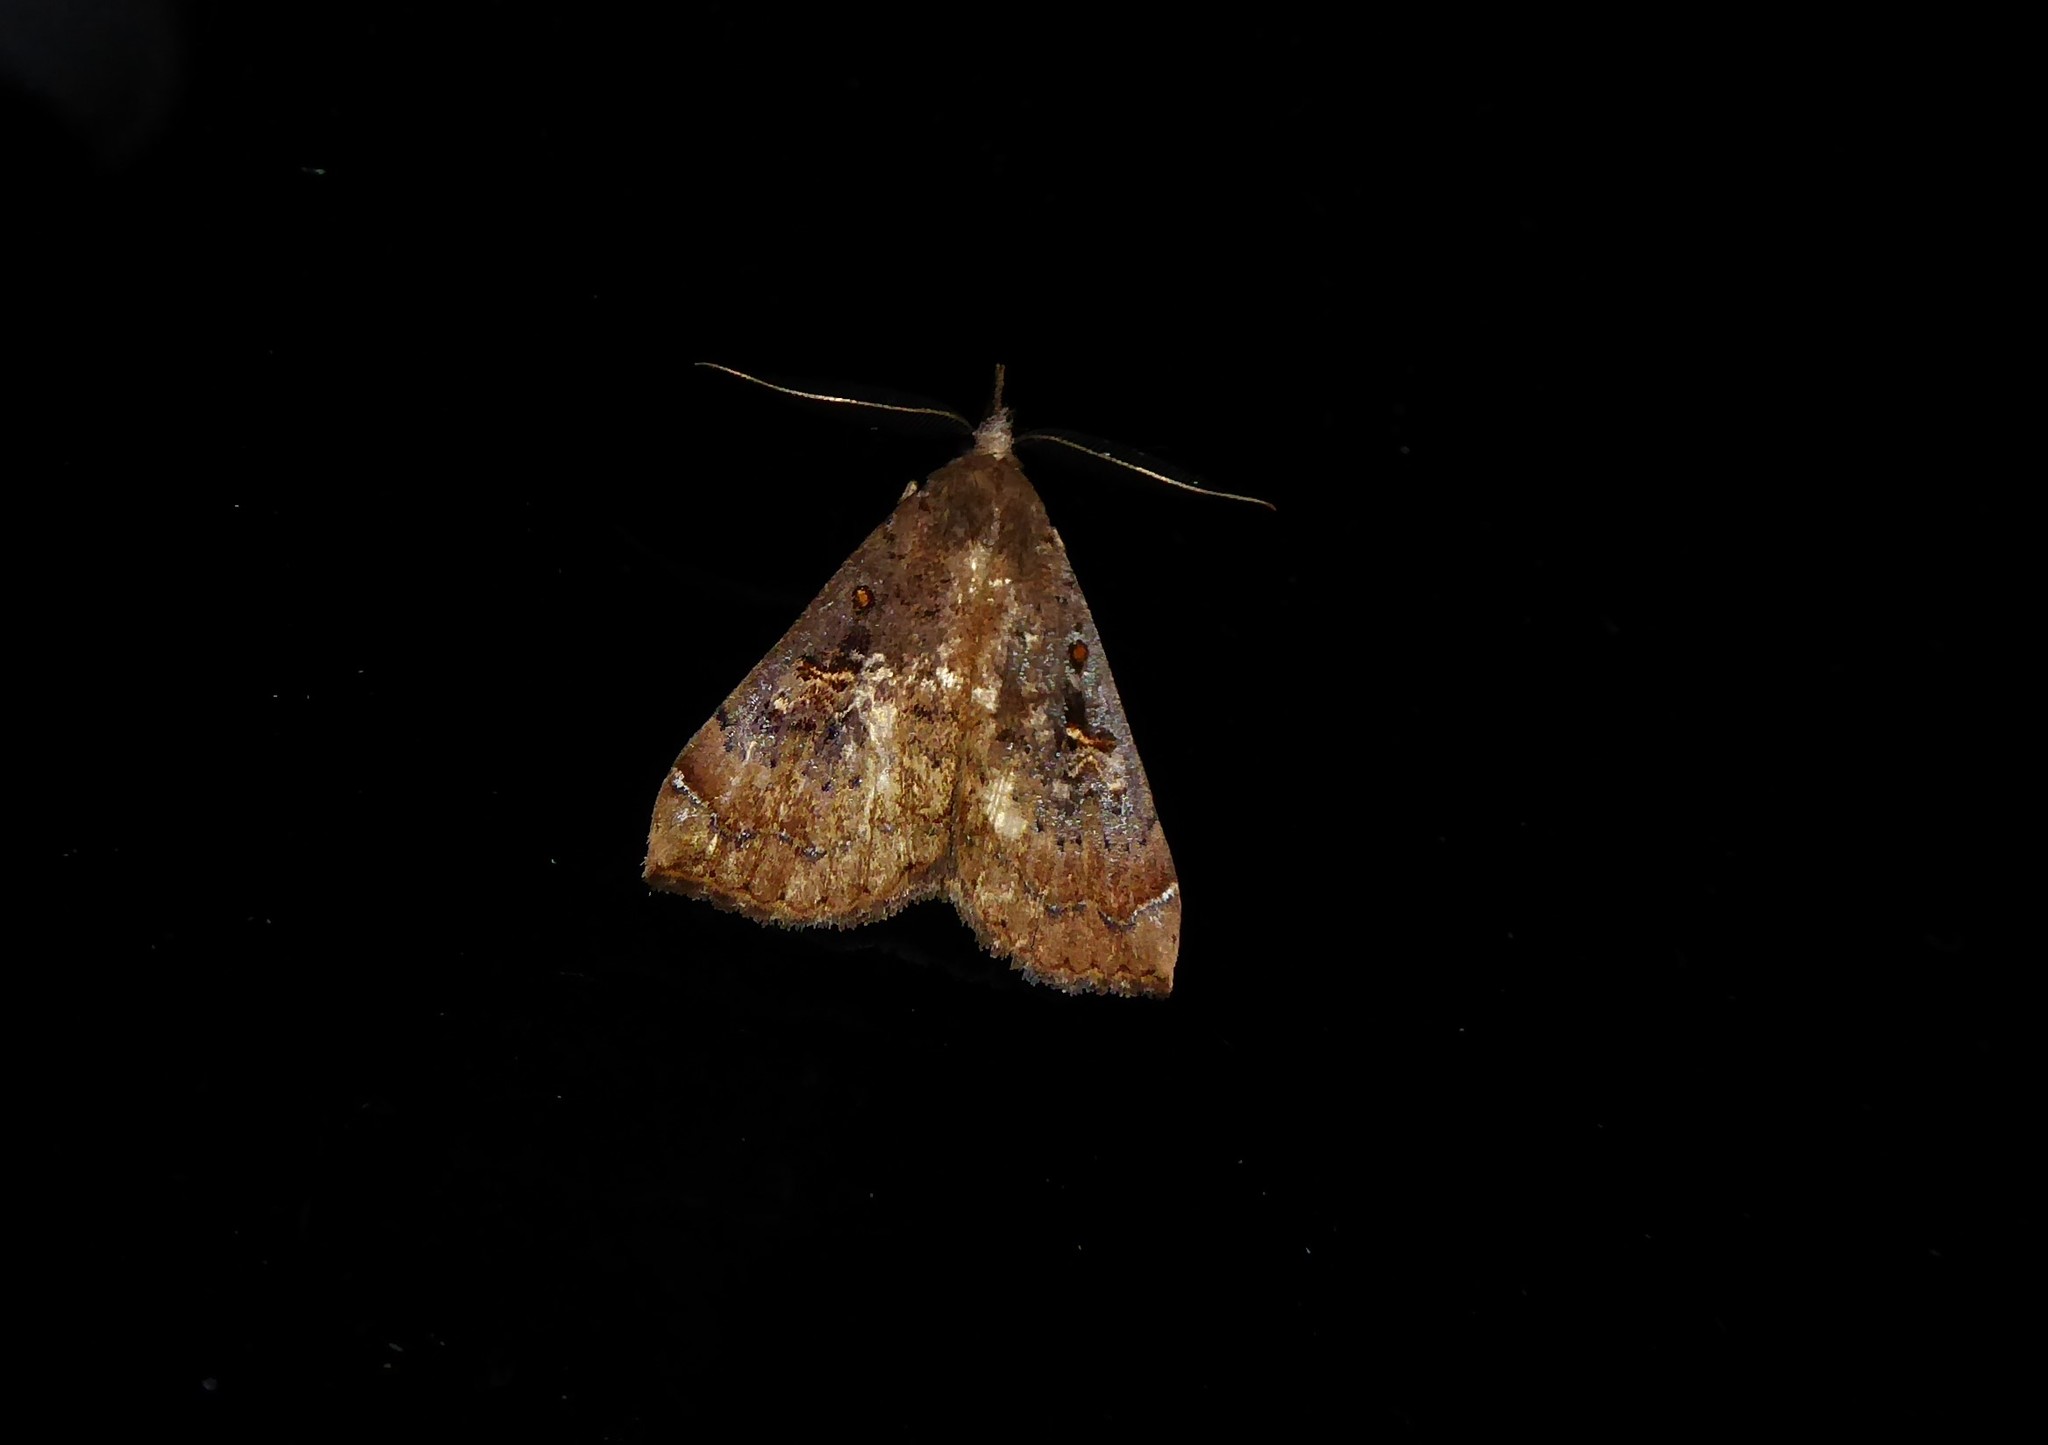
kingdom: Animalia
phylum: Arthropoda
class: Insecta
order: Lepidoptera
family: Erebidae
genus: Rhapsa
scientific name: Rhapsa scotosialis
